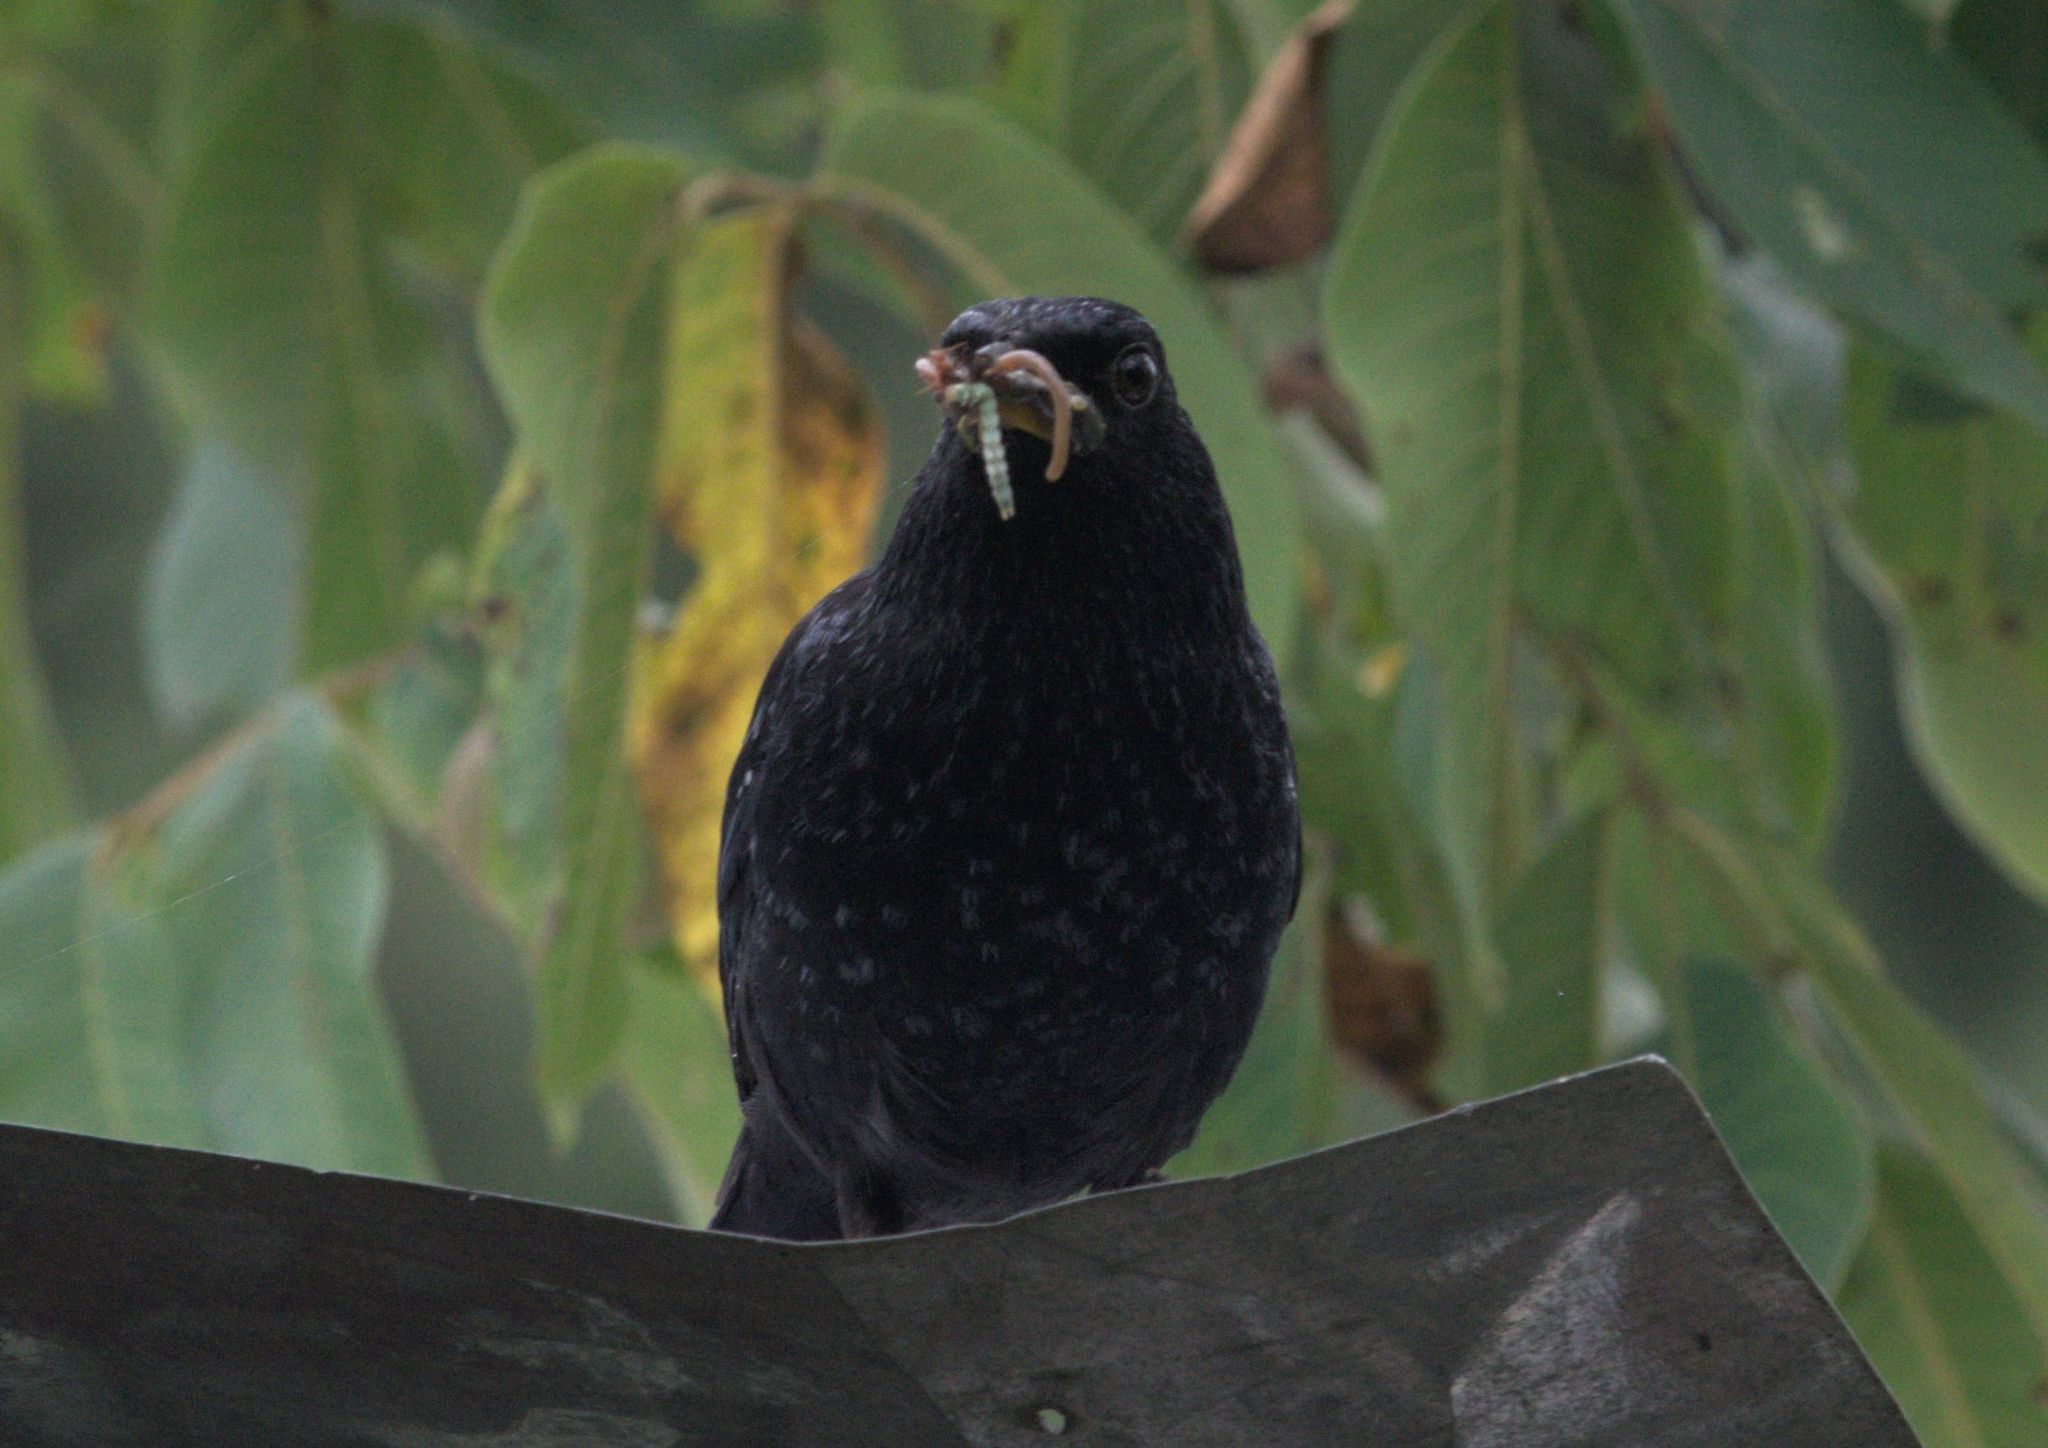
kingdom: Animalia
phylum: Chordata
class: Aves
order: Passeriformes
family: Muscicapidae
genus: Myophonus
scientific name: Myophonus caeruleus
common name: Blue whistling-thrush
